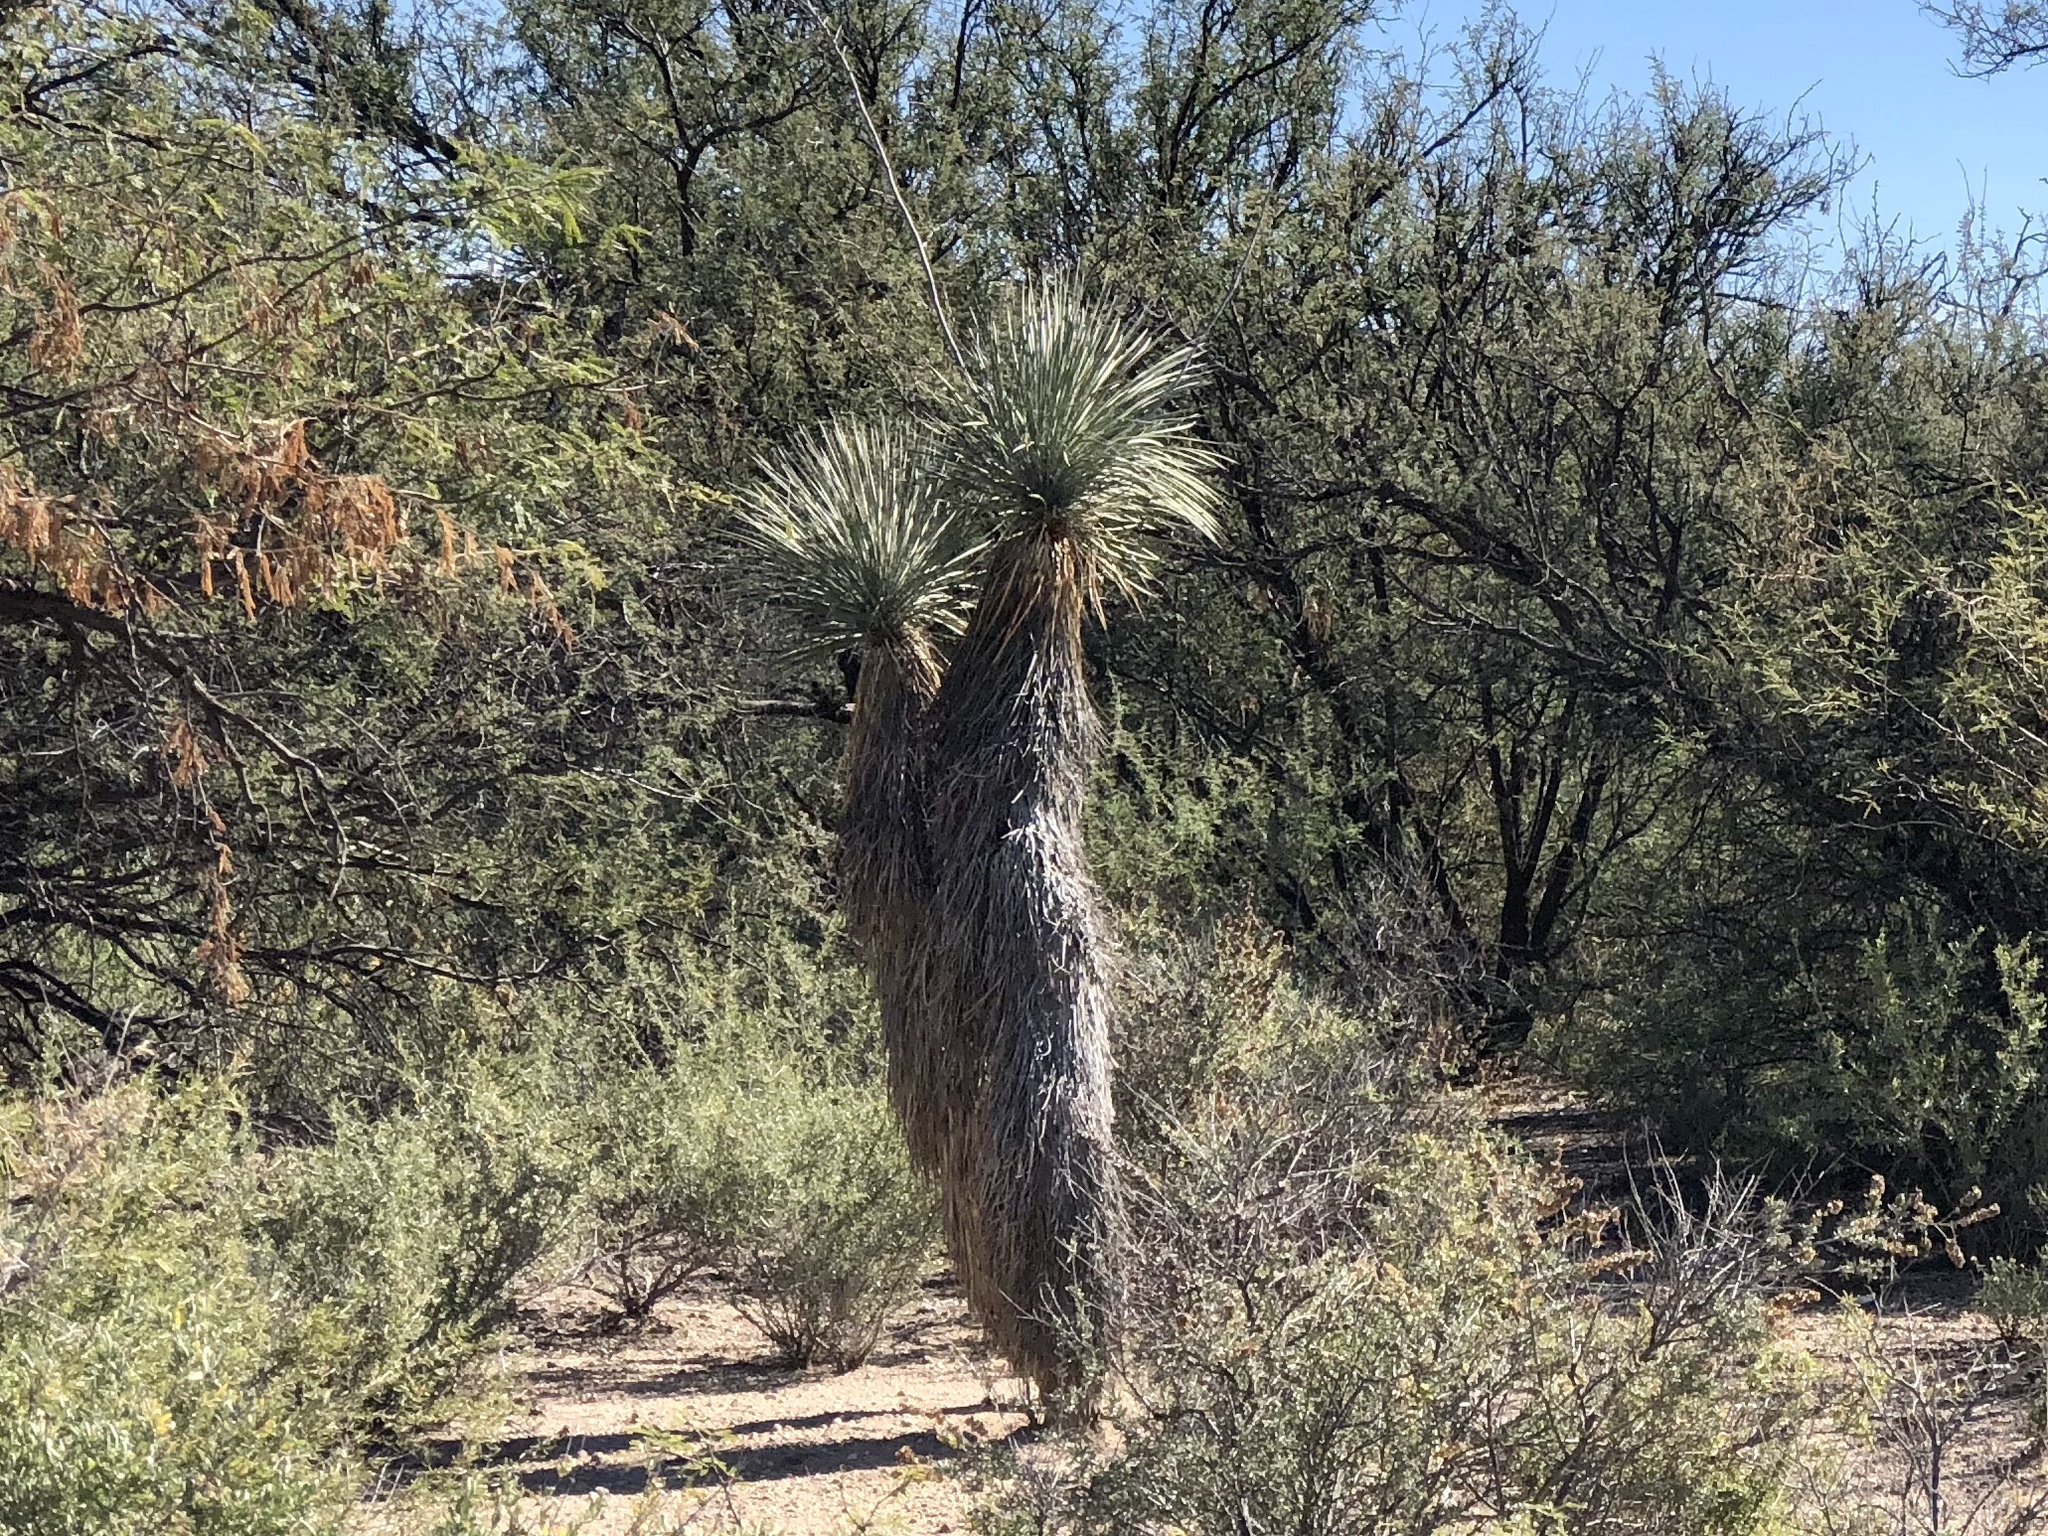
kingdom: Plantae
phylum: Tracheophyta
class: Liliopsida
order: Asparagales
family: Asparagaceae
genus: Yucca
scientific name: Yucca elata
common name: Palmella
